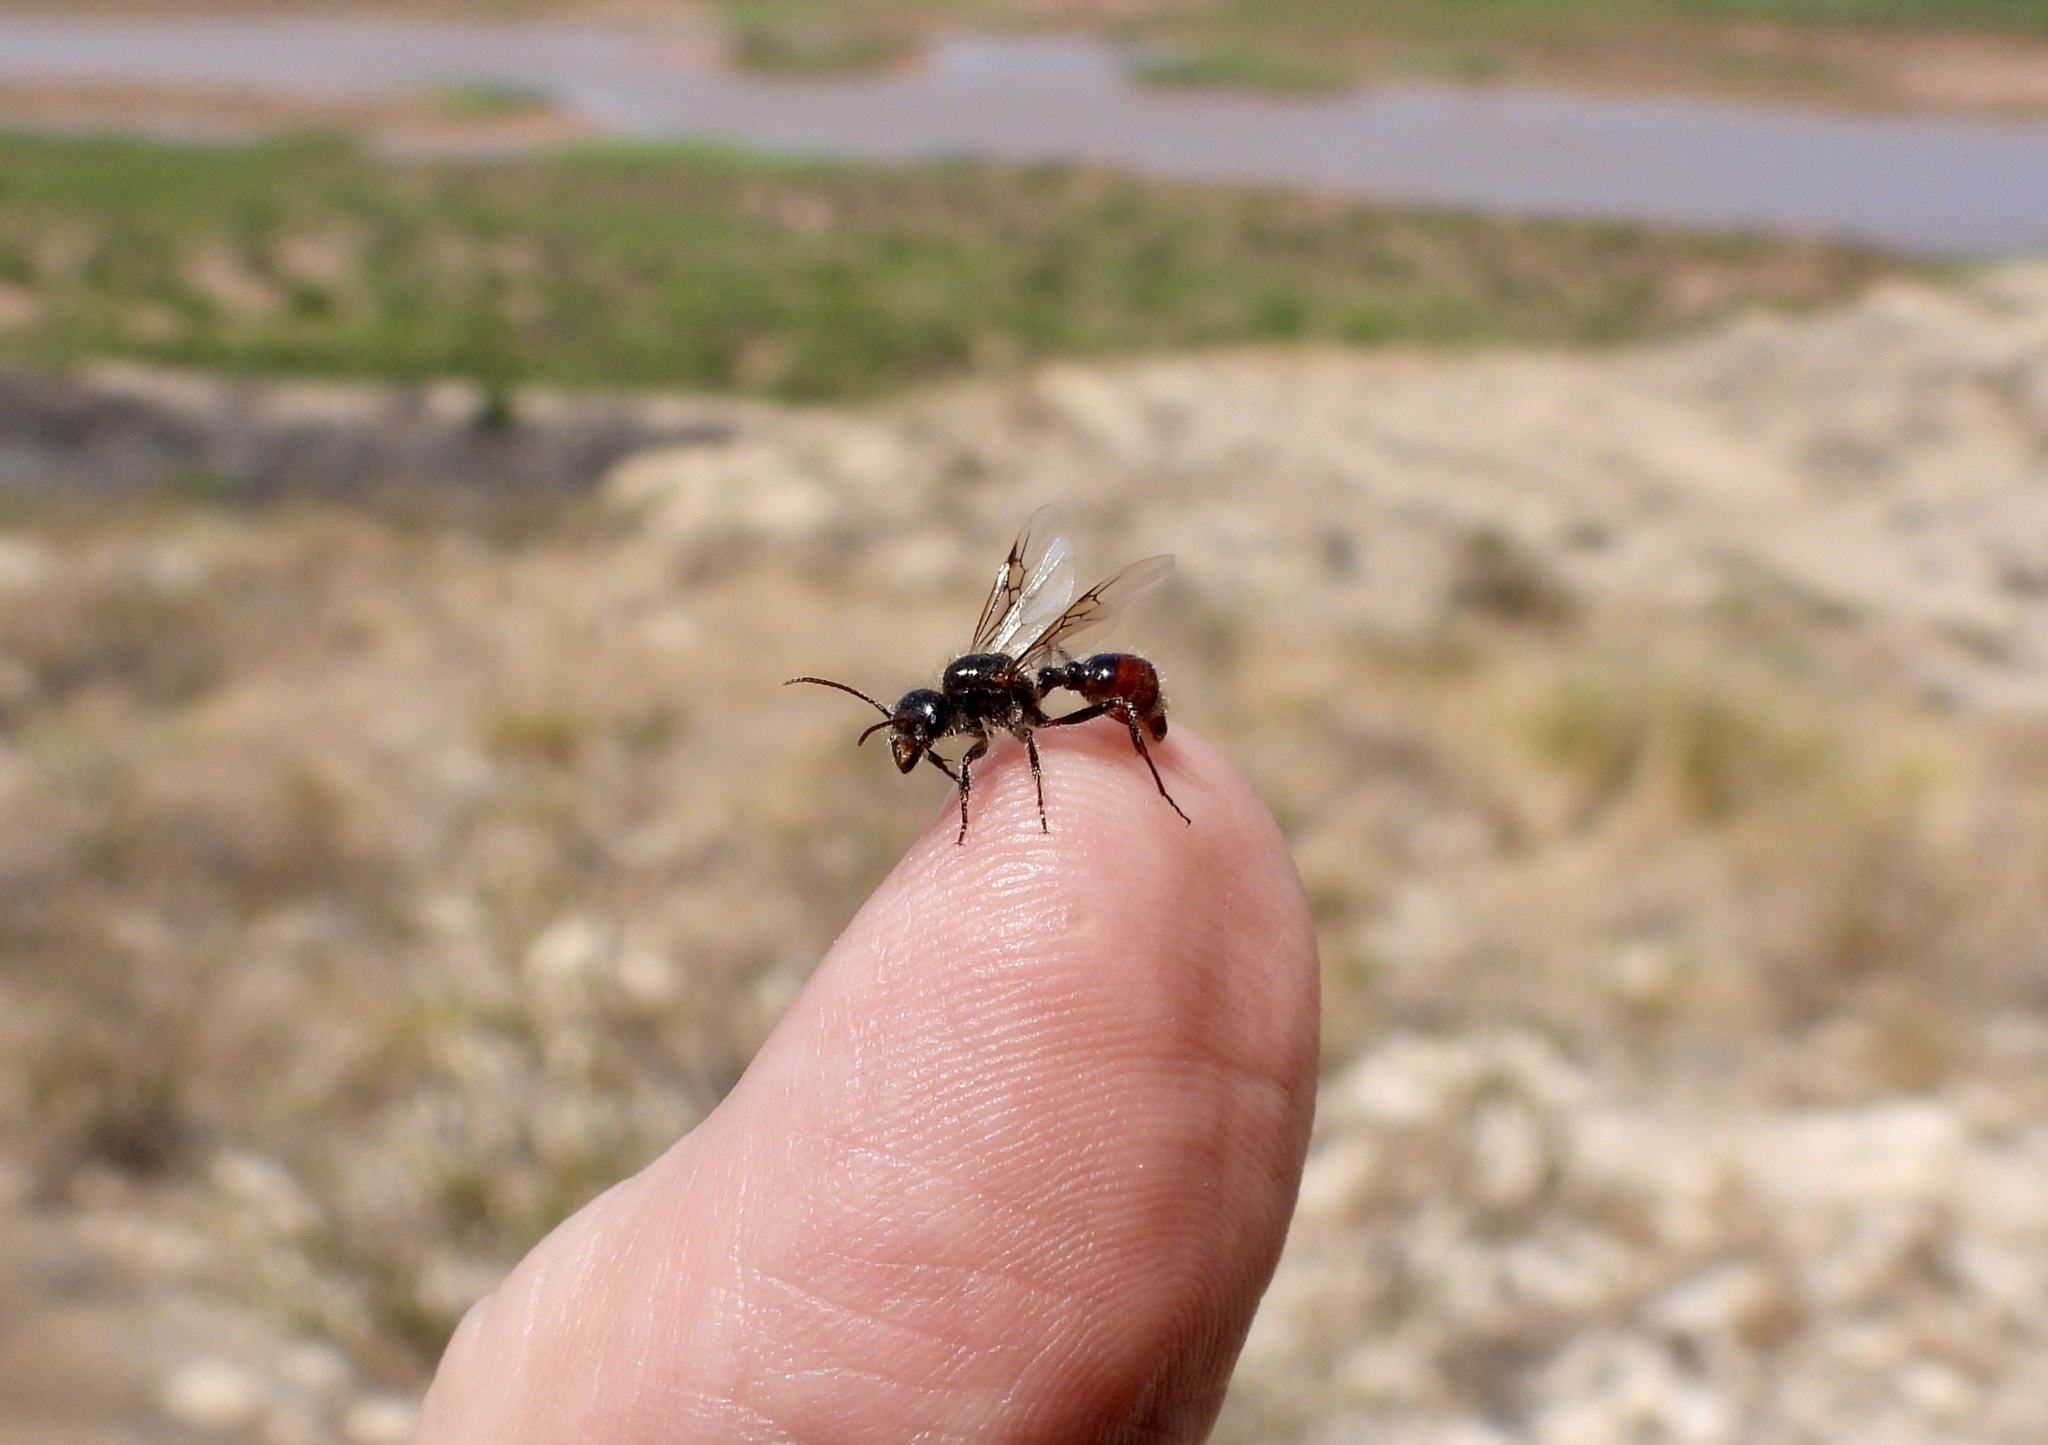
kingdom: Animalia
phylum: Arthropoda
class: Insecta
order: Hymenoptera
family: Formicidae
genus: Pogonomyrmex
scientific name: Pogonomyrmex rugosus
